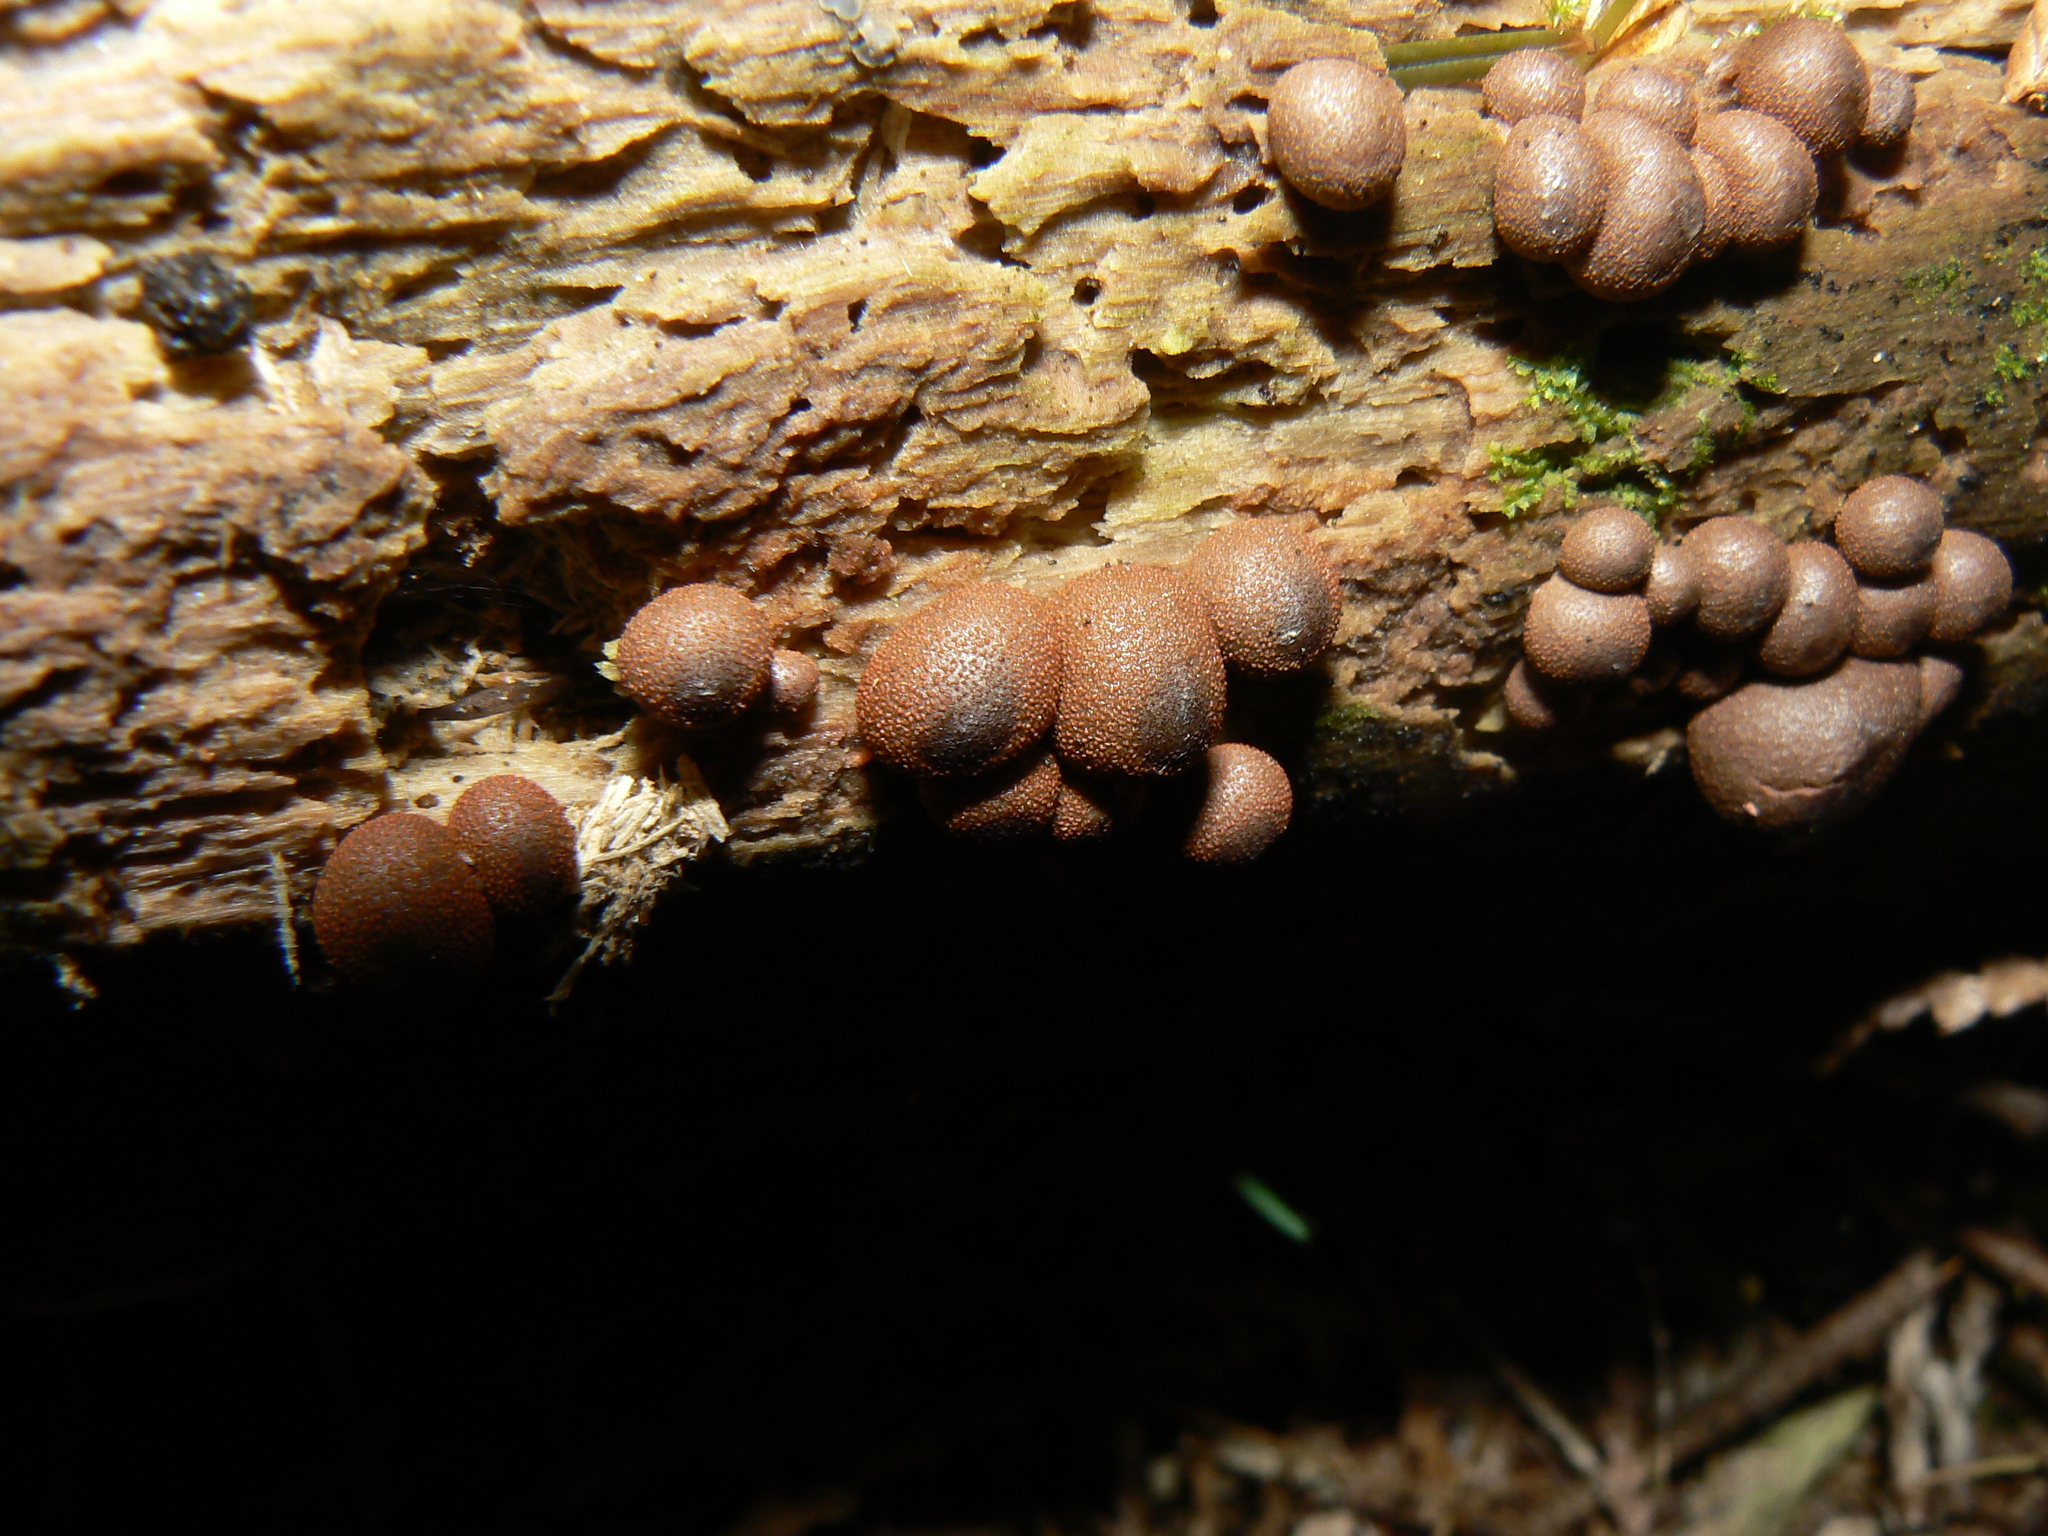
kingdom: Protozoa
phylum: Mycetozoa
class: Myxomycetes
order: Cribrariales
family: Tubiferaceae
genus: Lycogala
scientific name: Lycogala epidendrum
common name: Wolf's milk
